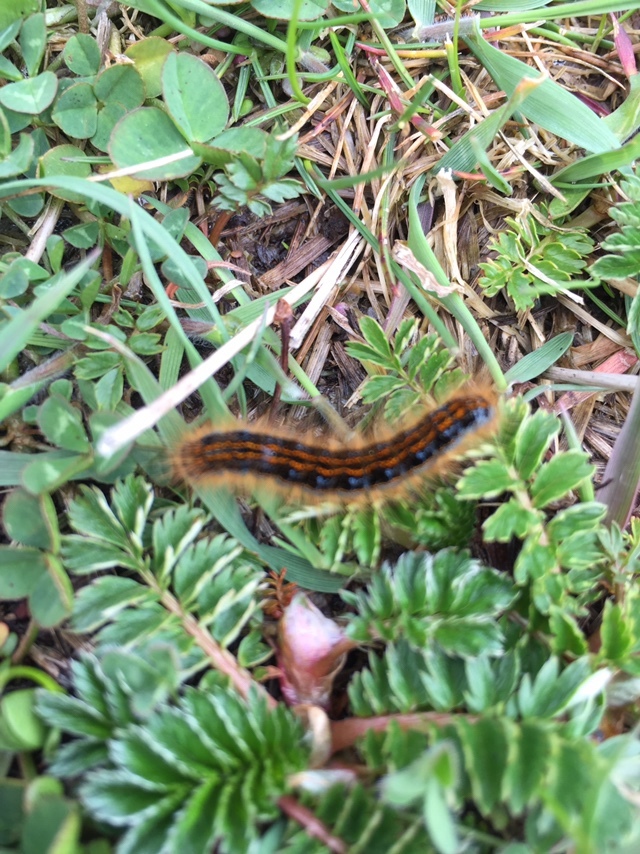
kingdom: Animalia
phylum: Arthropoda
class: Insecta
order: Lepidoptera
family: Lasiocampidae
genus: Malacosoma
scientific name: Malacosoma castrense
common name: Ground lackey
